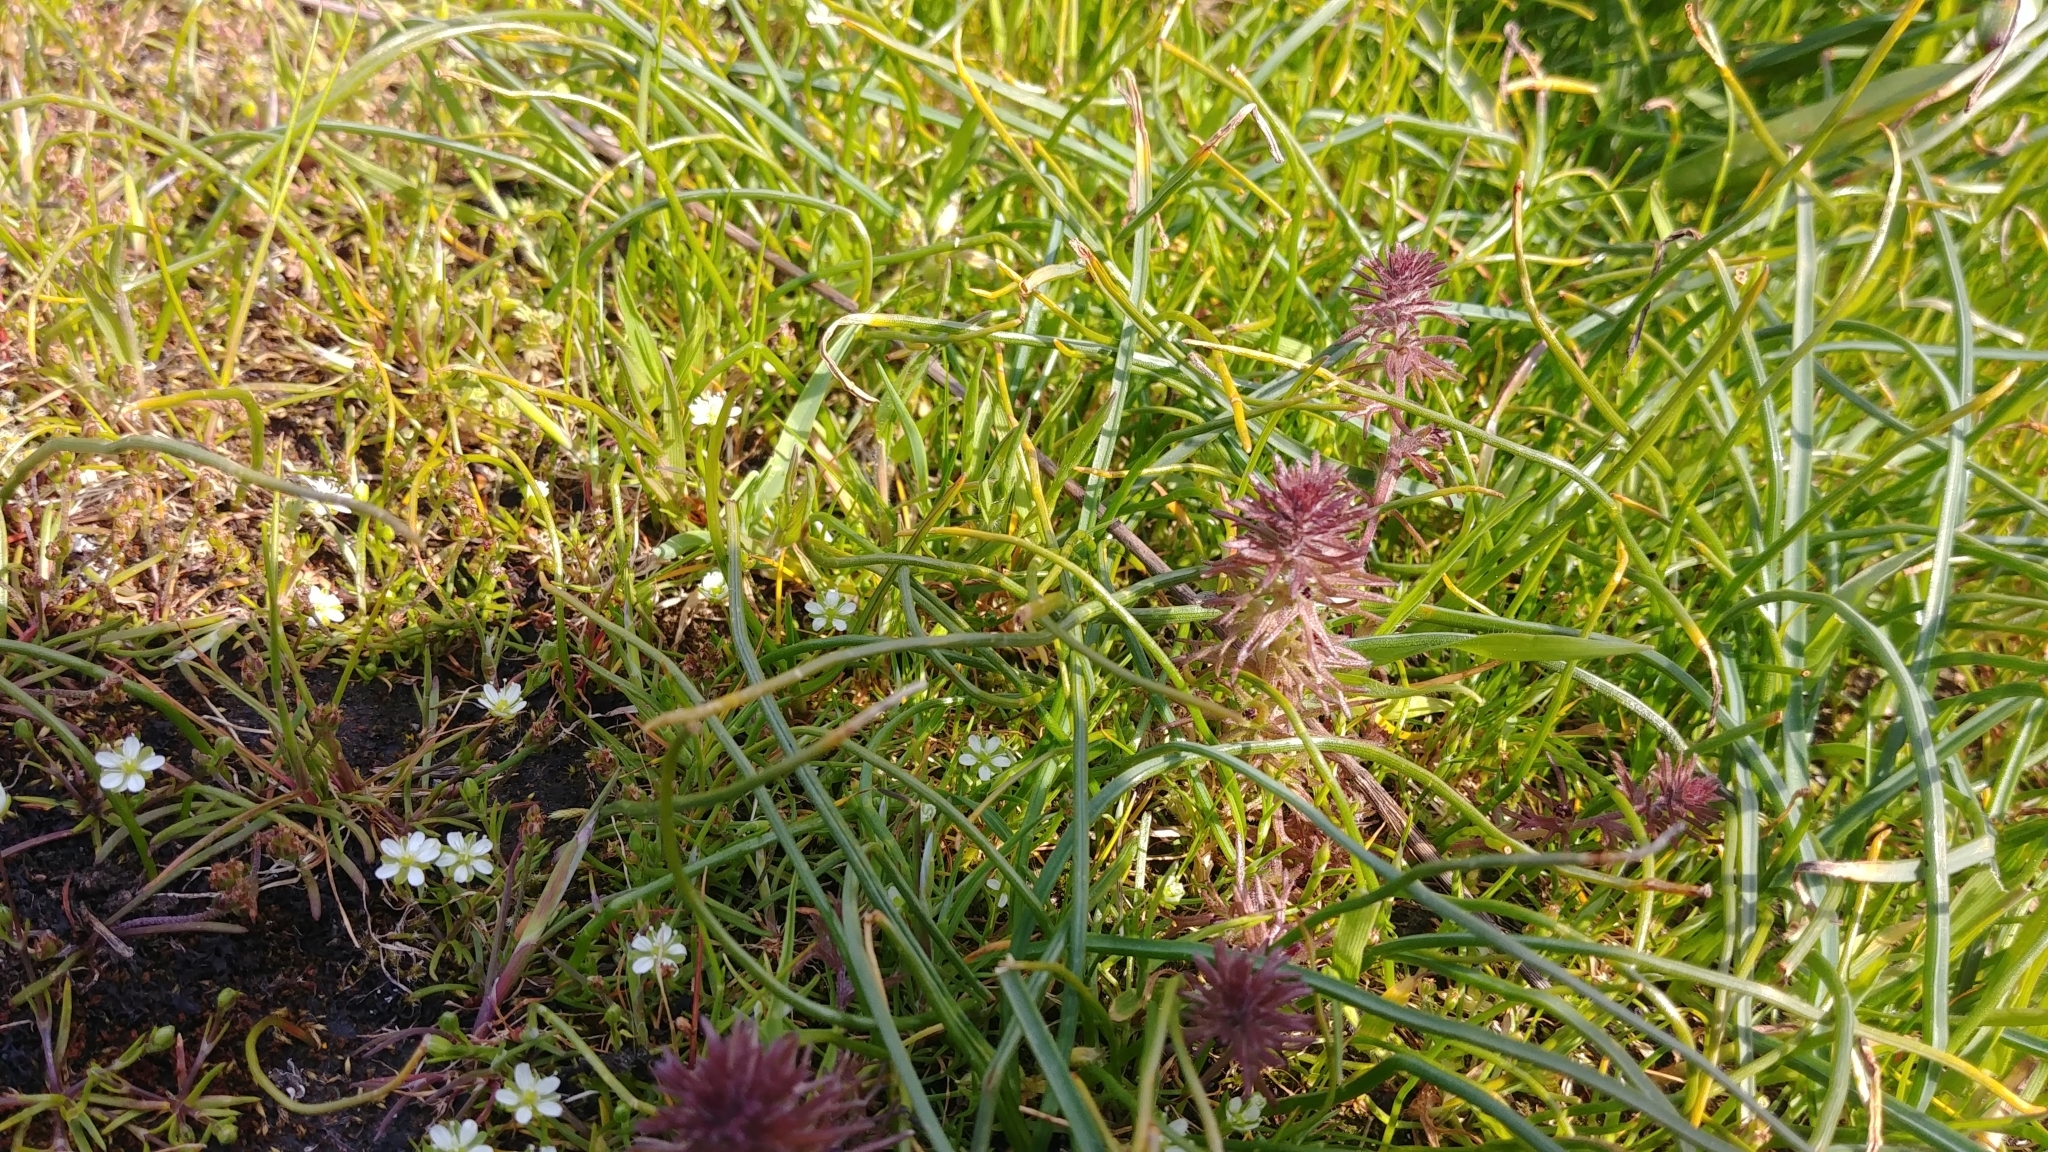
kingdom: Plantae
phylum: Tracheophyta
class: Magnoliopsida
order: Lamiales
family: Orobanchaceae
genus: Triphysaria
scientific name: Triphysaria pusilla
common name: Dwarf false owl-clover
